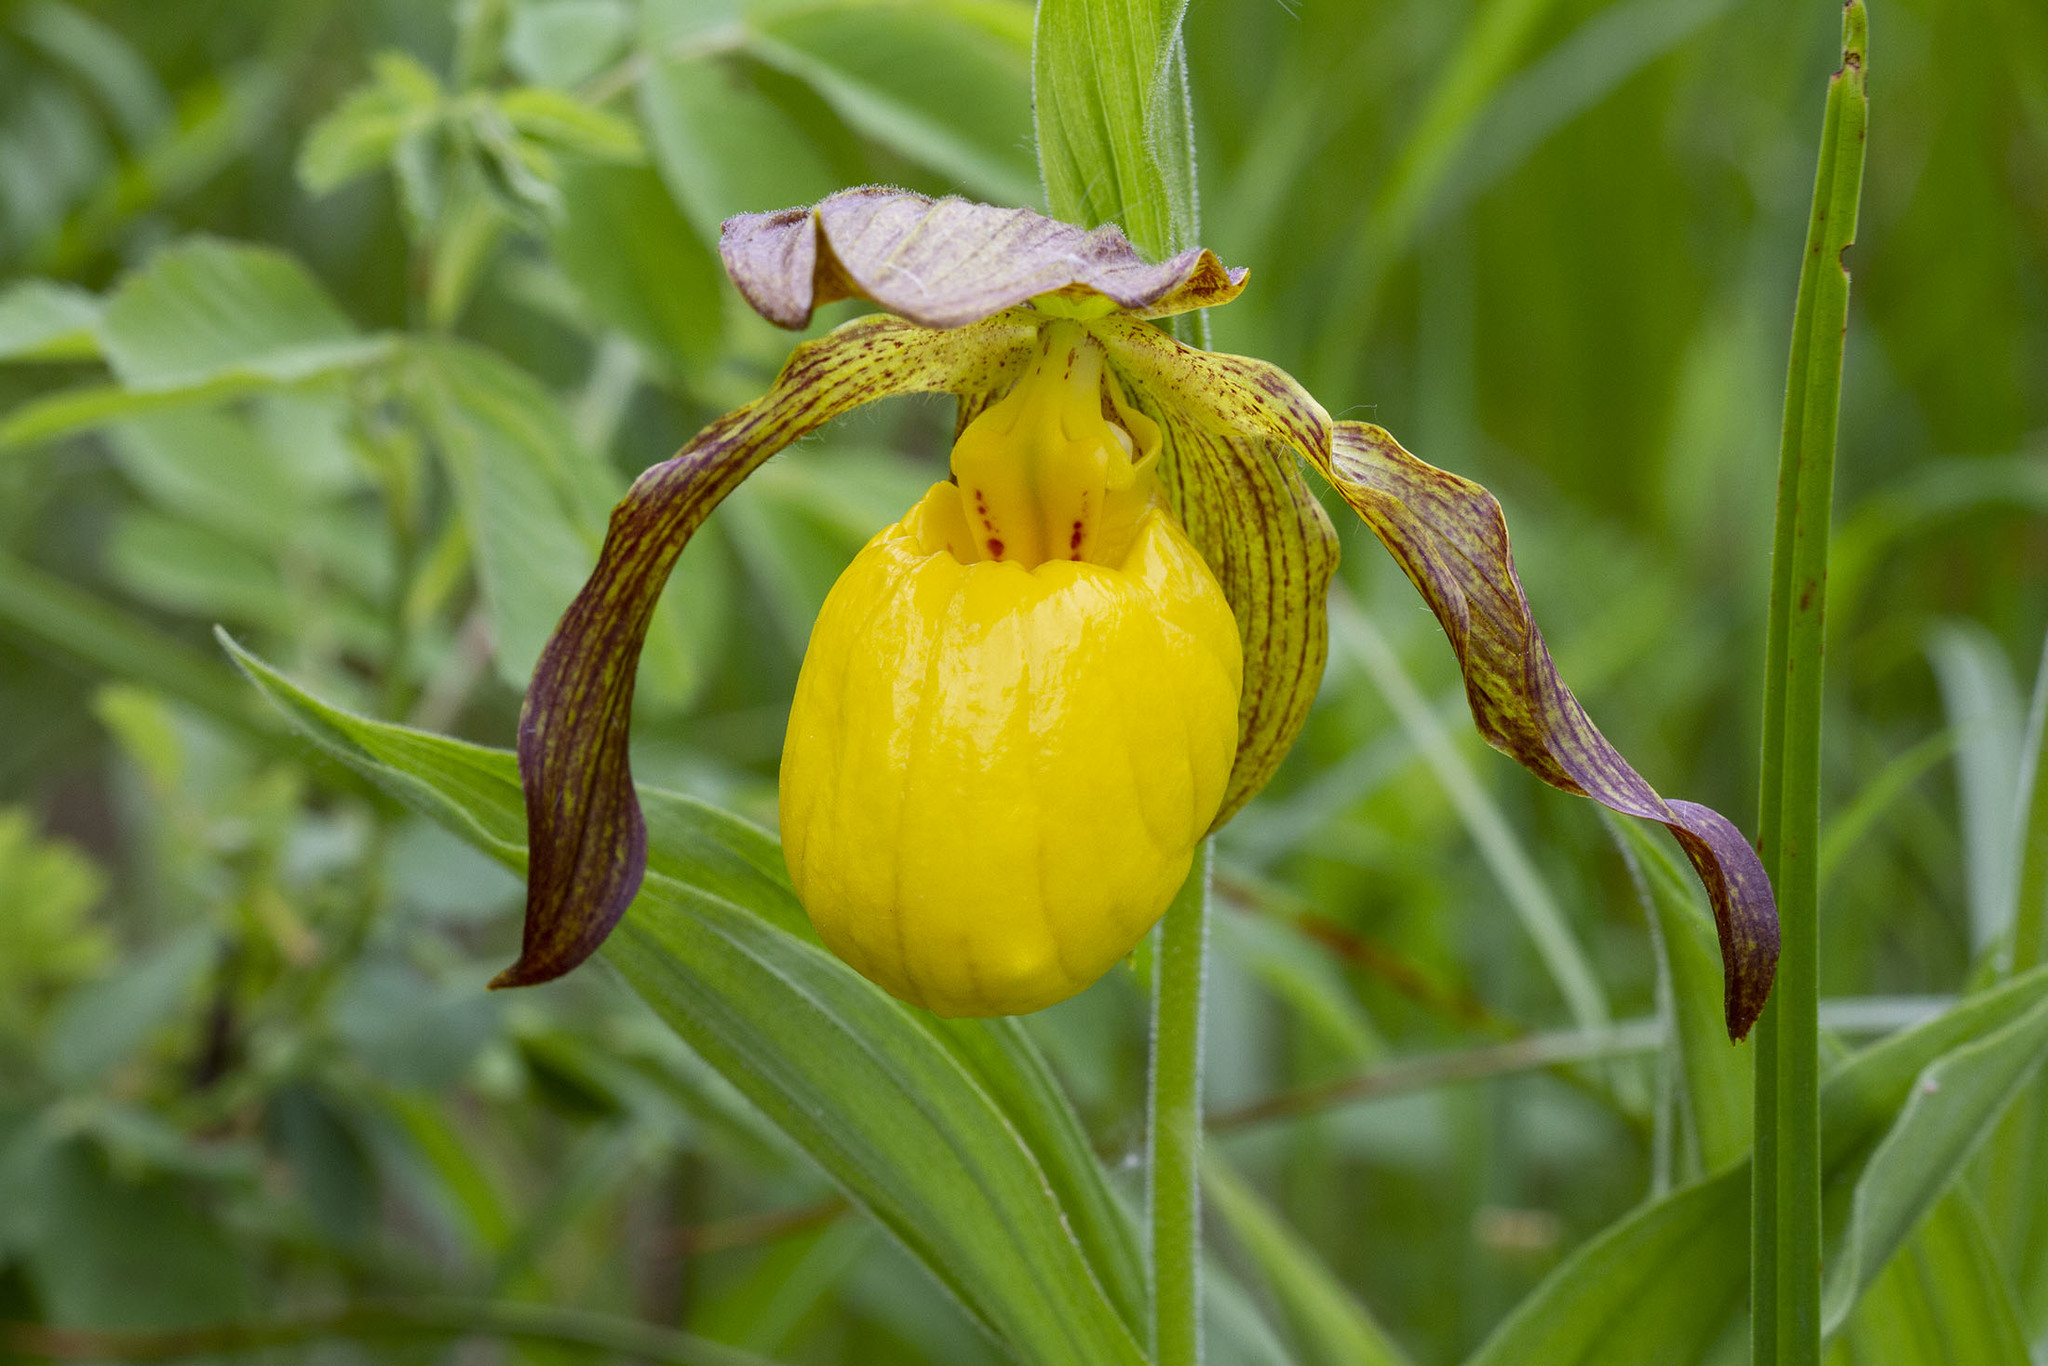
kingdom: Plantae
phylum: Tracheophyta
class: Liliopsida
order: Asparagales
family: Orchidaceae
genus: Cypripedium
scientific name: Cypripedium parviflorum
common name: American yellow lady's-slipper
